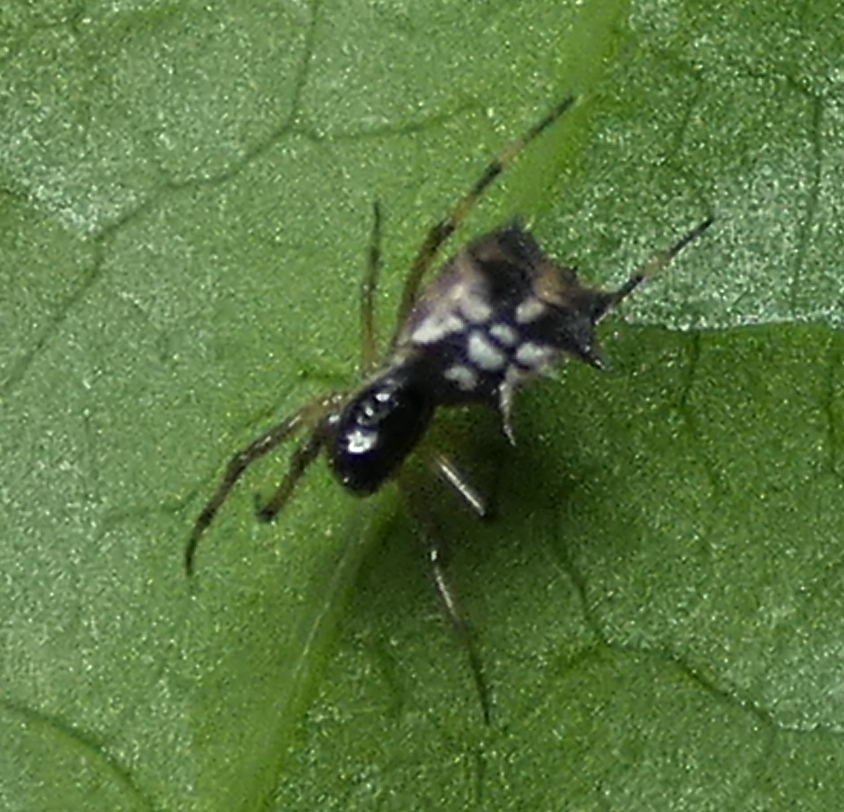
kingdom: Animalia
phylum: Arthropoda
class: Arachnida
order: Araneae
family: Araneidae
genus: Micrathena
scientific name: Micrathena picta
